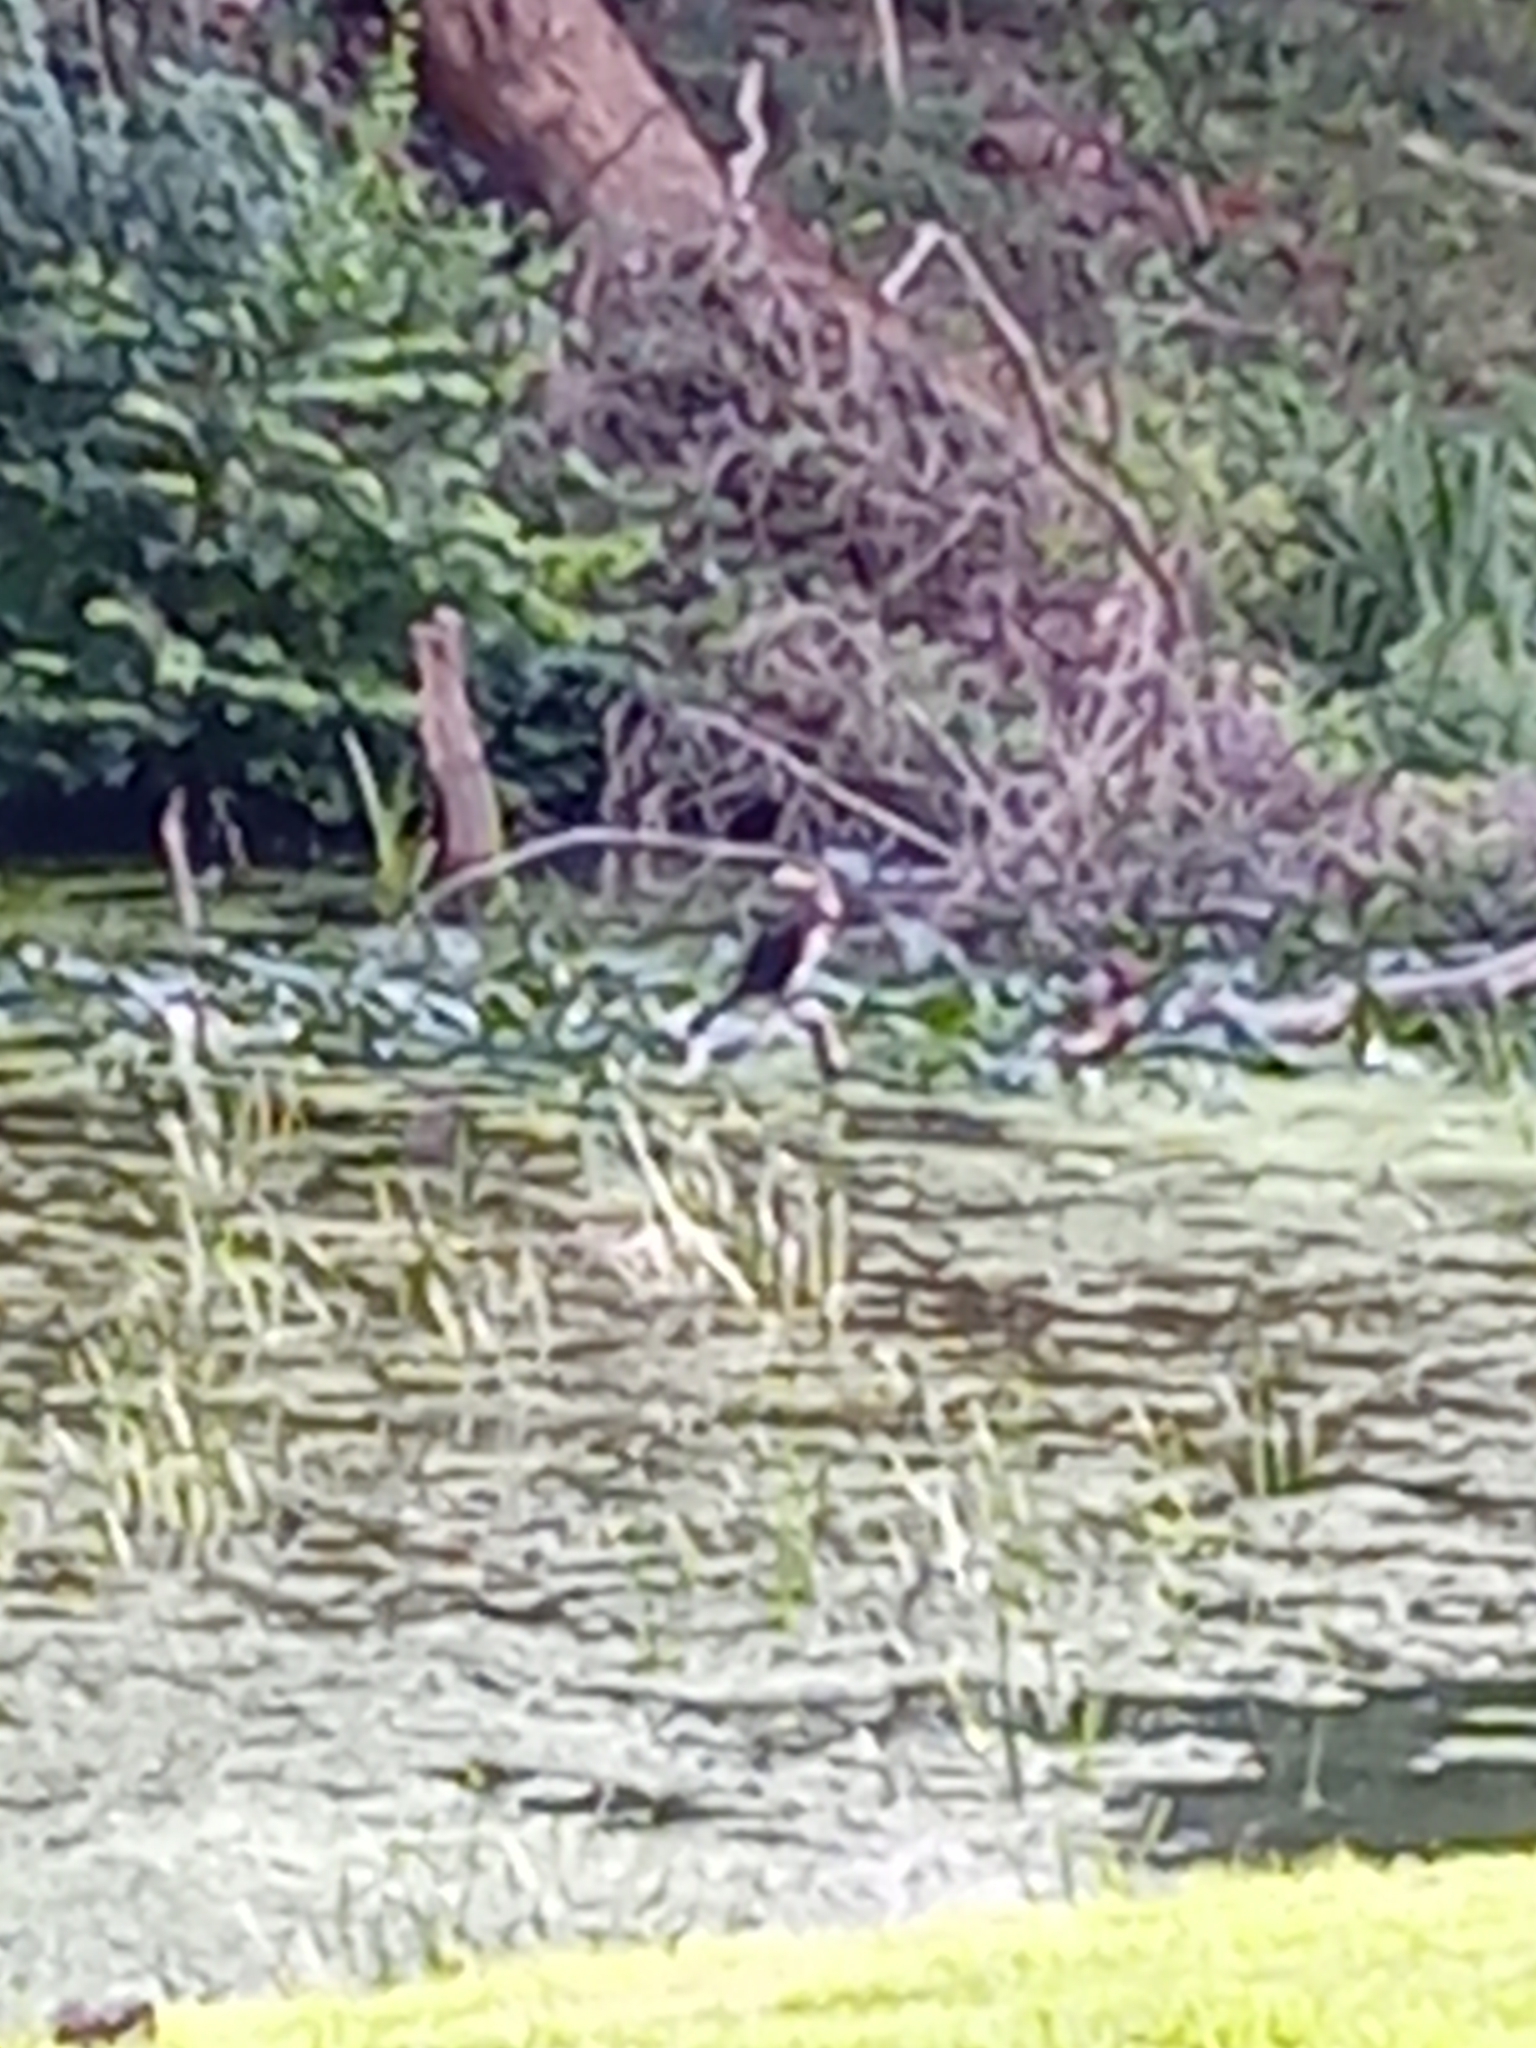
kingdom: Animalia
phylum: Chordata
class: Aves
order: Suliformes
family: Phalacrocoracidae
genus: Phalacrocorax
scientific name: Phalacrocorax carbo
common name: Great cormorant
